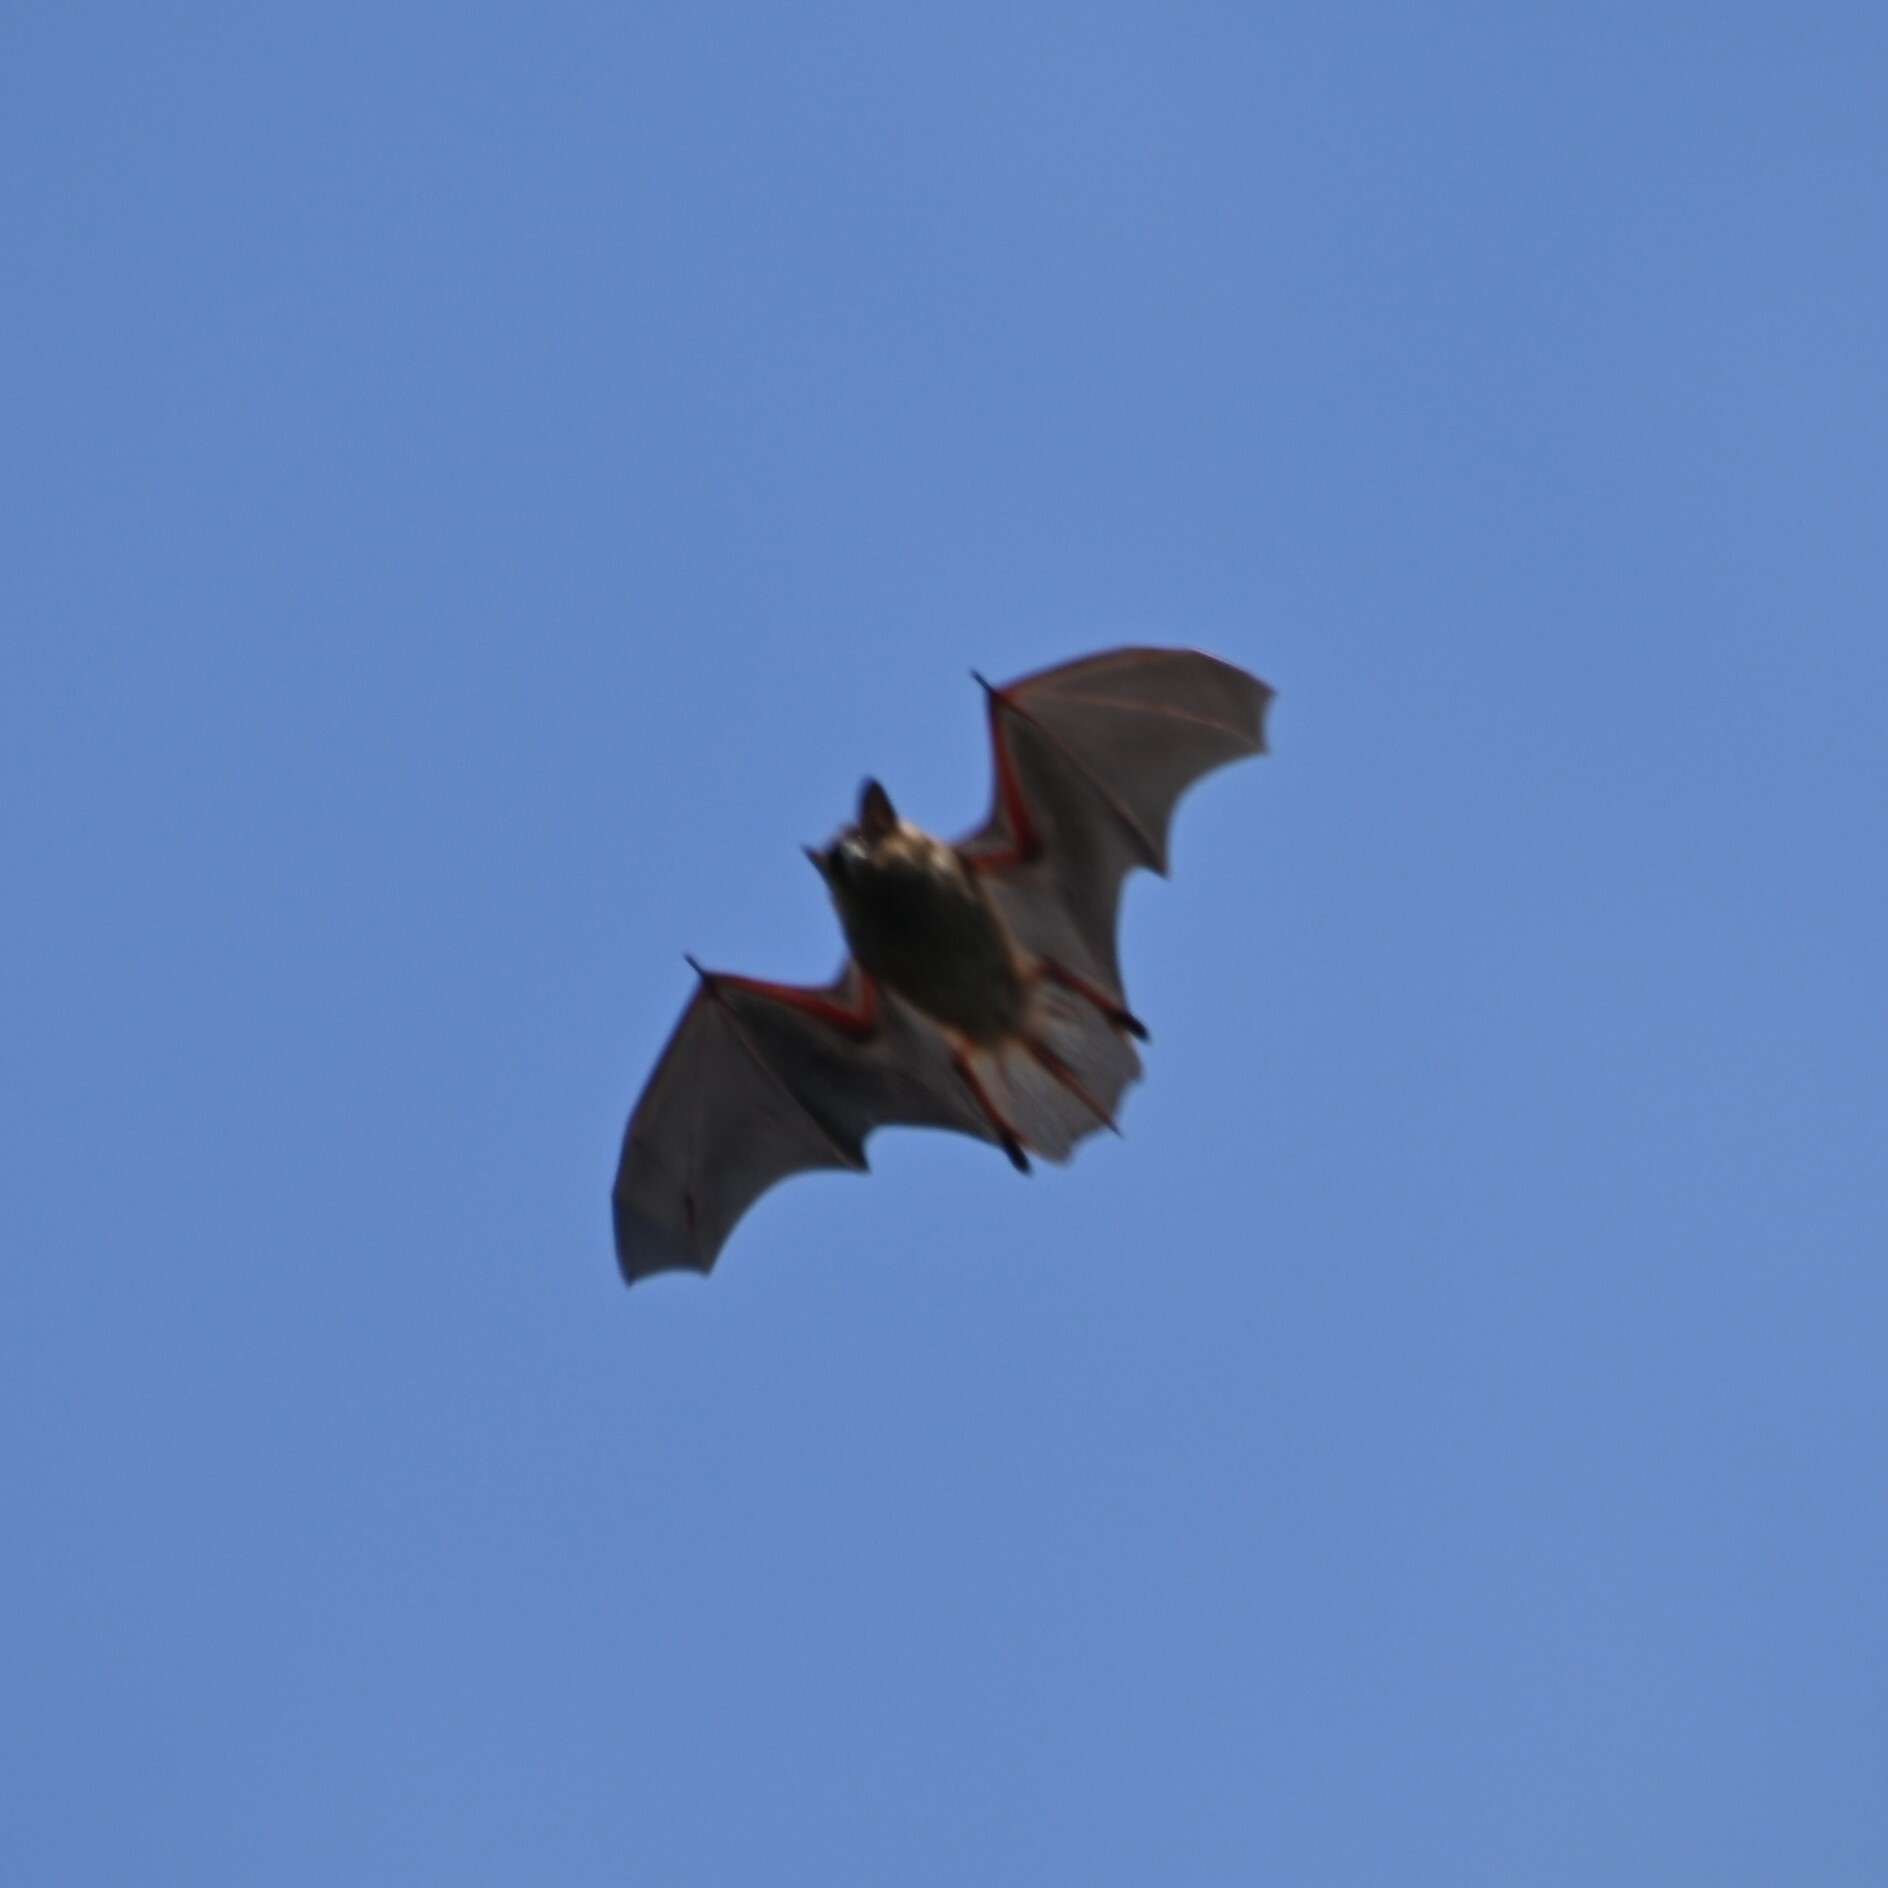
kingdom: Animalia
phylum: Chordata
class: Mammalia
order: Chiroptera
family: Vespertilionidae
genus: Eptesicus
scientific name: Eptesicus fuscus
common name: Big brown bat
